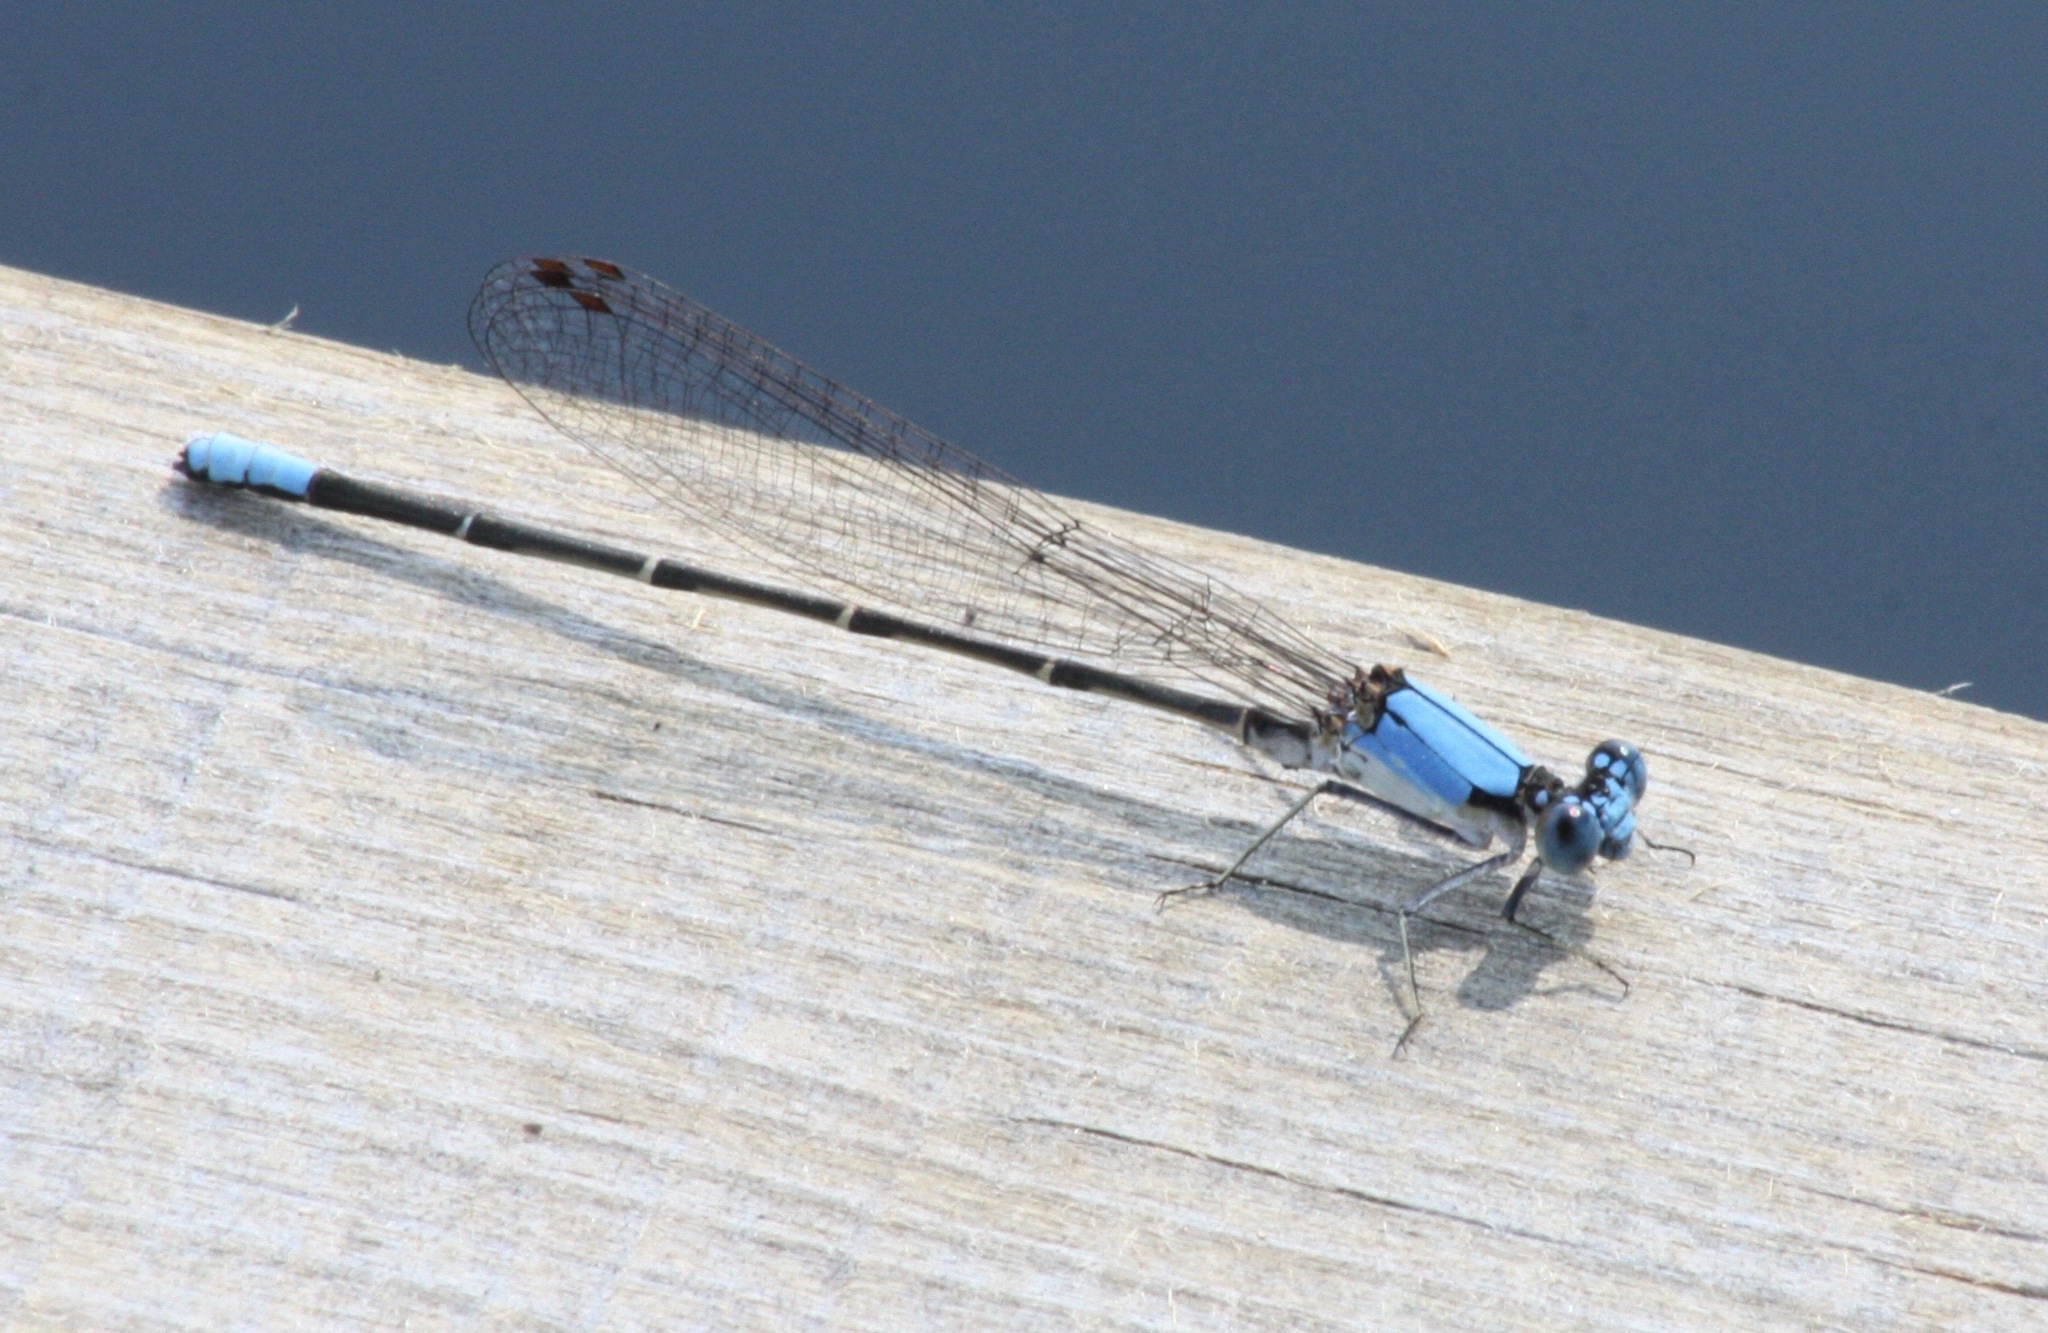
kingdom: Animalia
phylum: Arthropoda
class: Insecta
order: Odonata
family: Coenagrionidae
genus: Argia
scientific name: Argia apicalis
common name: Blue-fronted dancer
